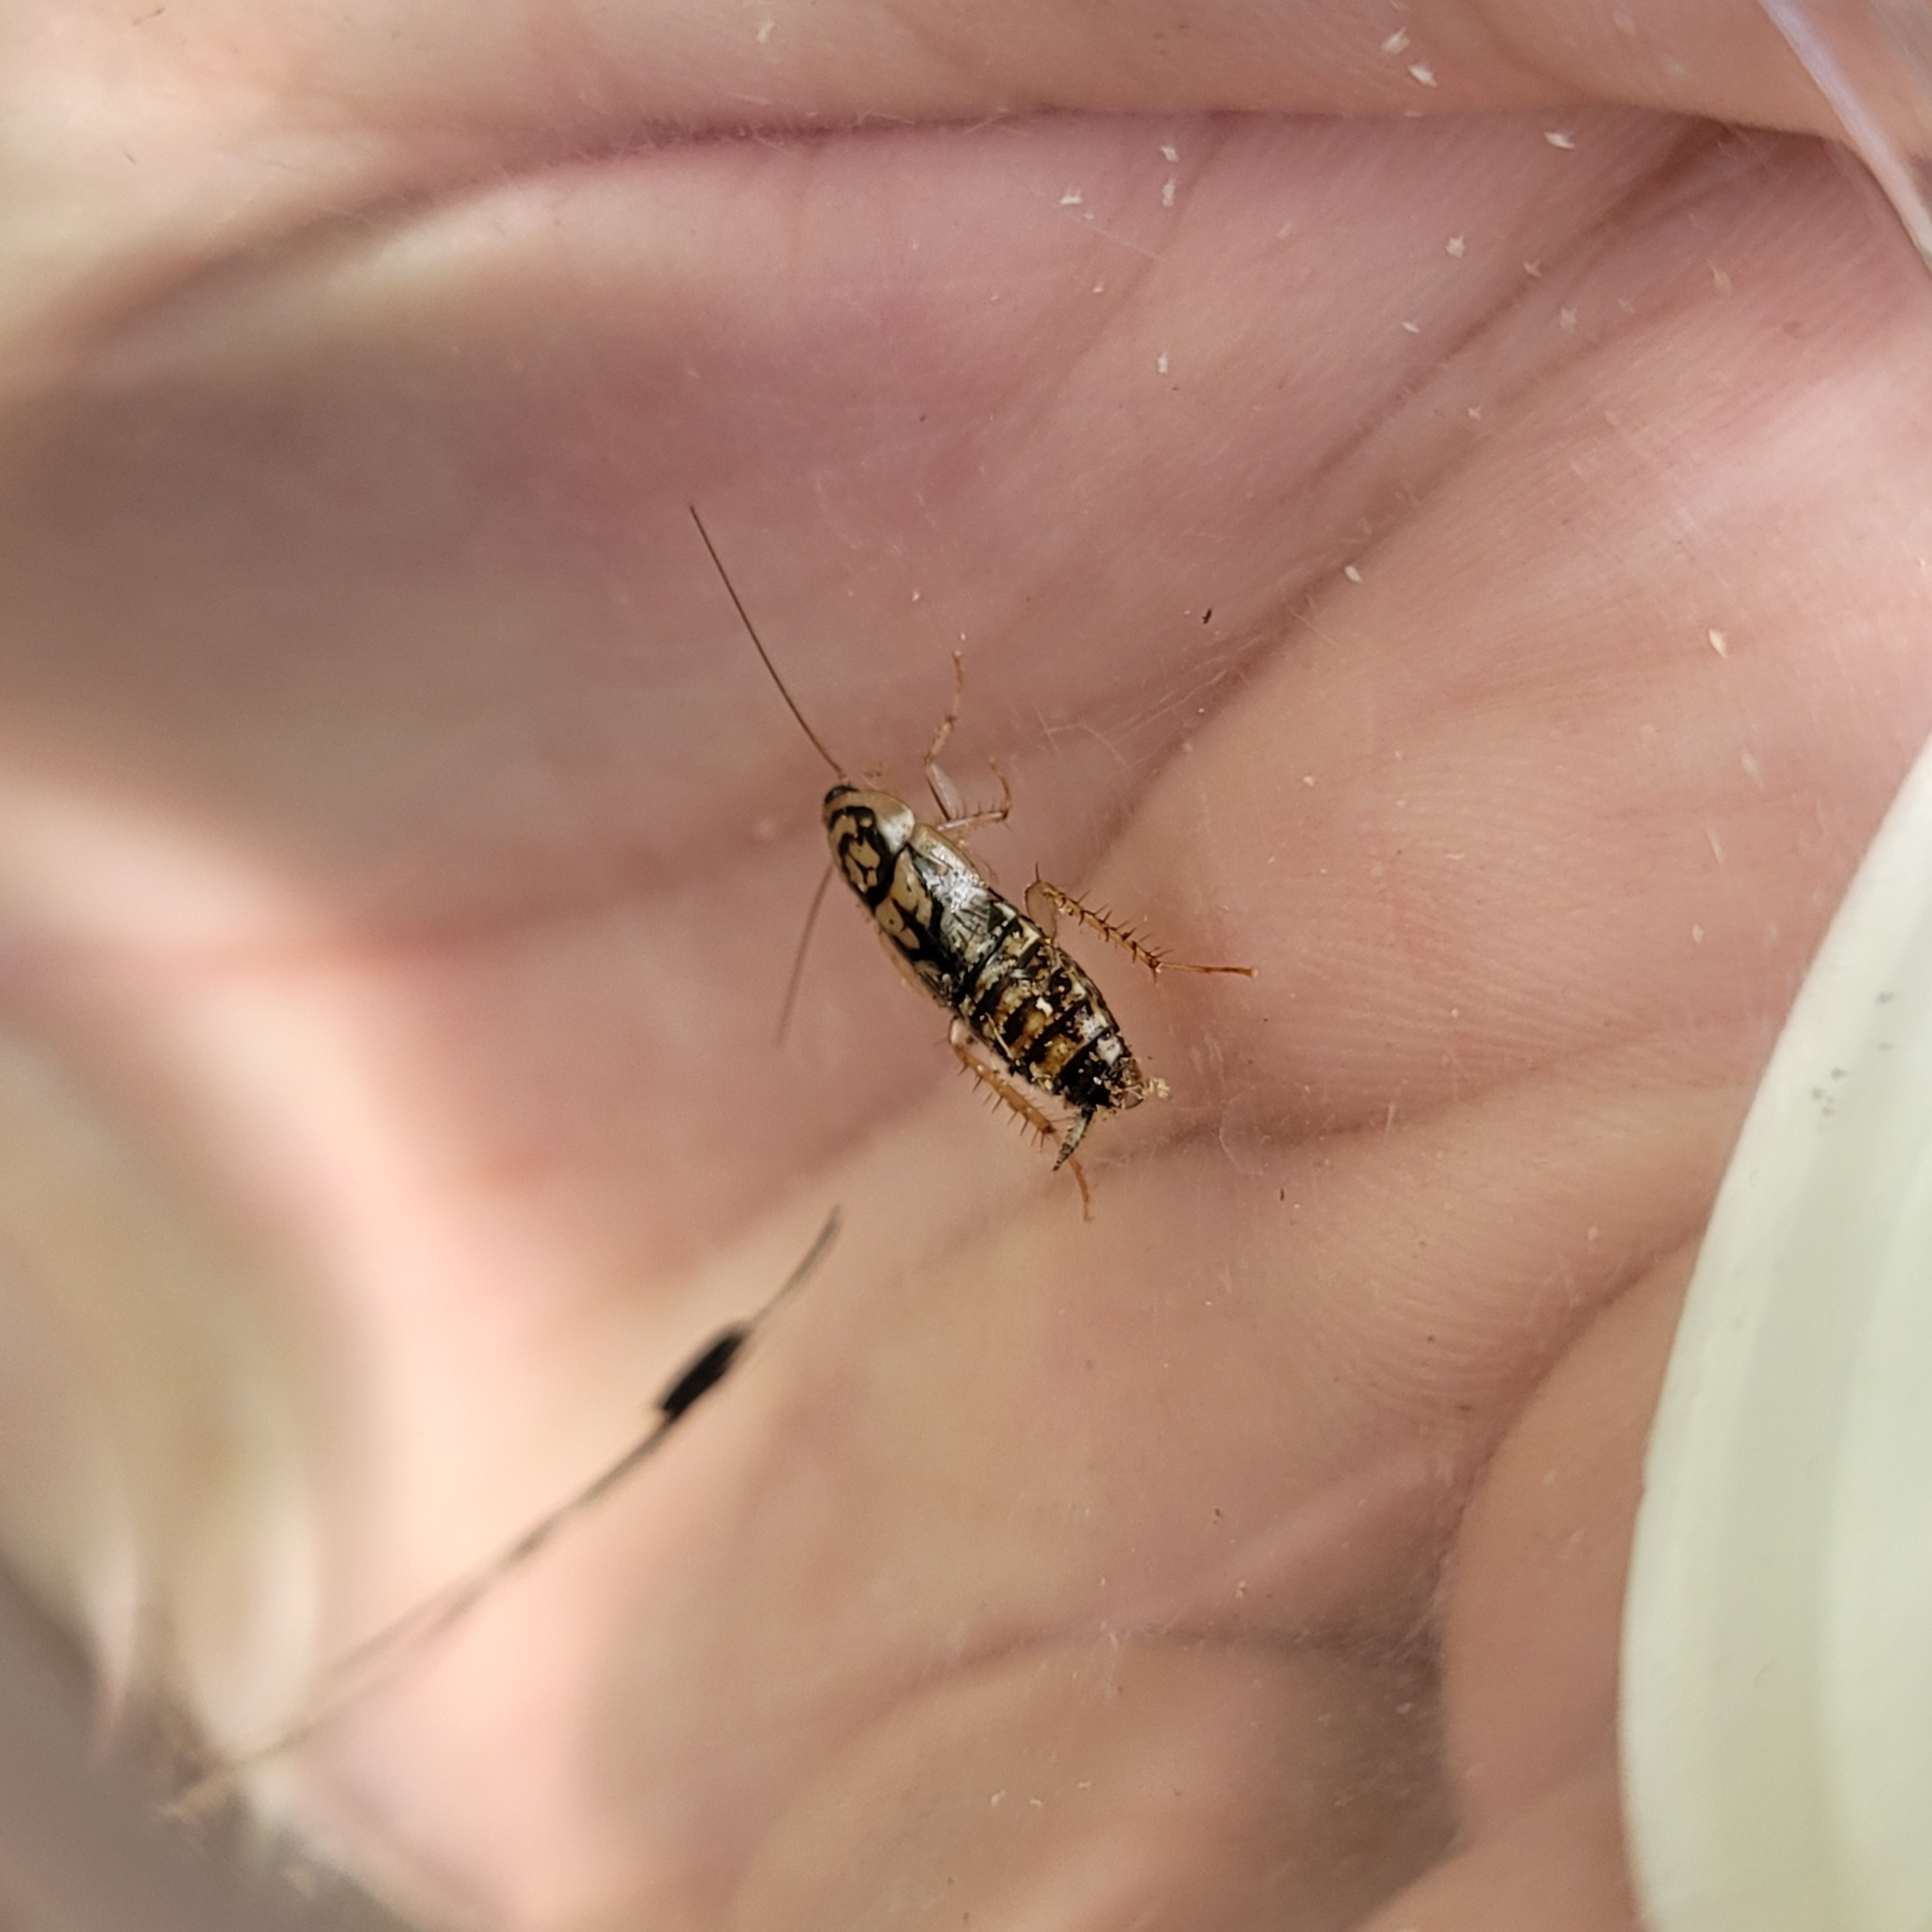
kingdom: Animalia
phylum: Arthropoda
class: Insecta
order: Blattodea
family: Ectobiidae
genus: Aglaopteryx
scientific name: Aglaopteryx gemma
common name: Shortwing gem cockroach
